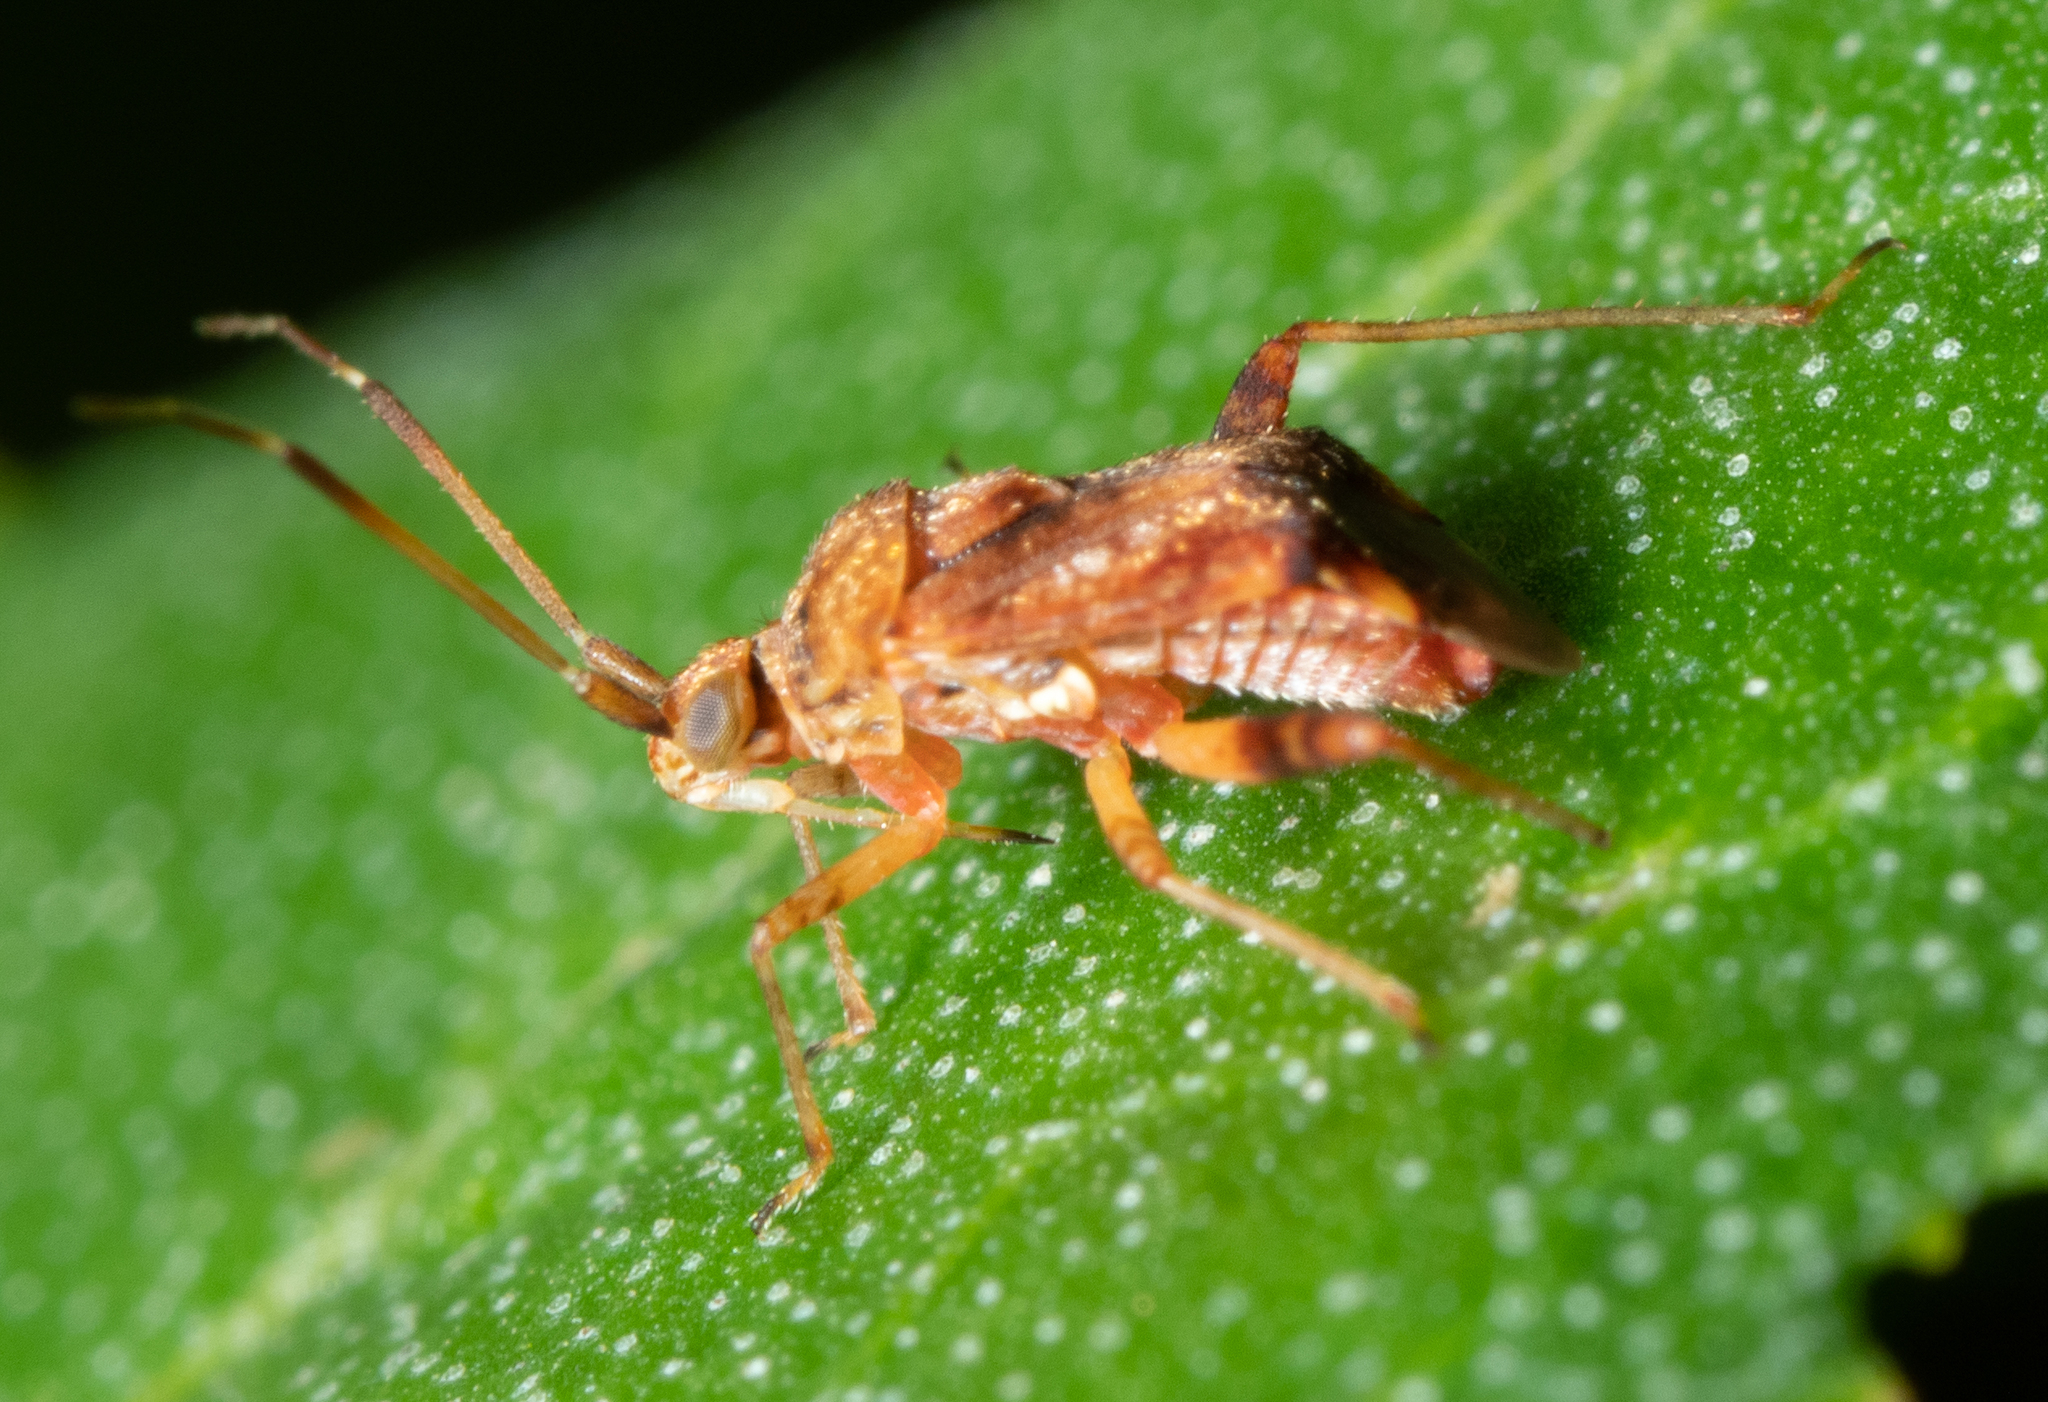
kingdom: Animalia
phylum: Arthropoda
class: Insecta
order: Hemiptera
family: Miridae
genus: Sidnia
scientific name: Sidnia kinbergi
